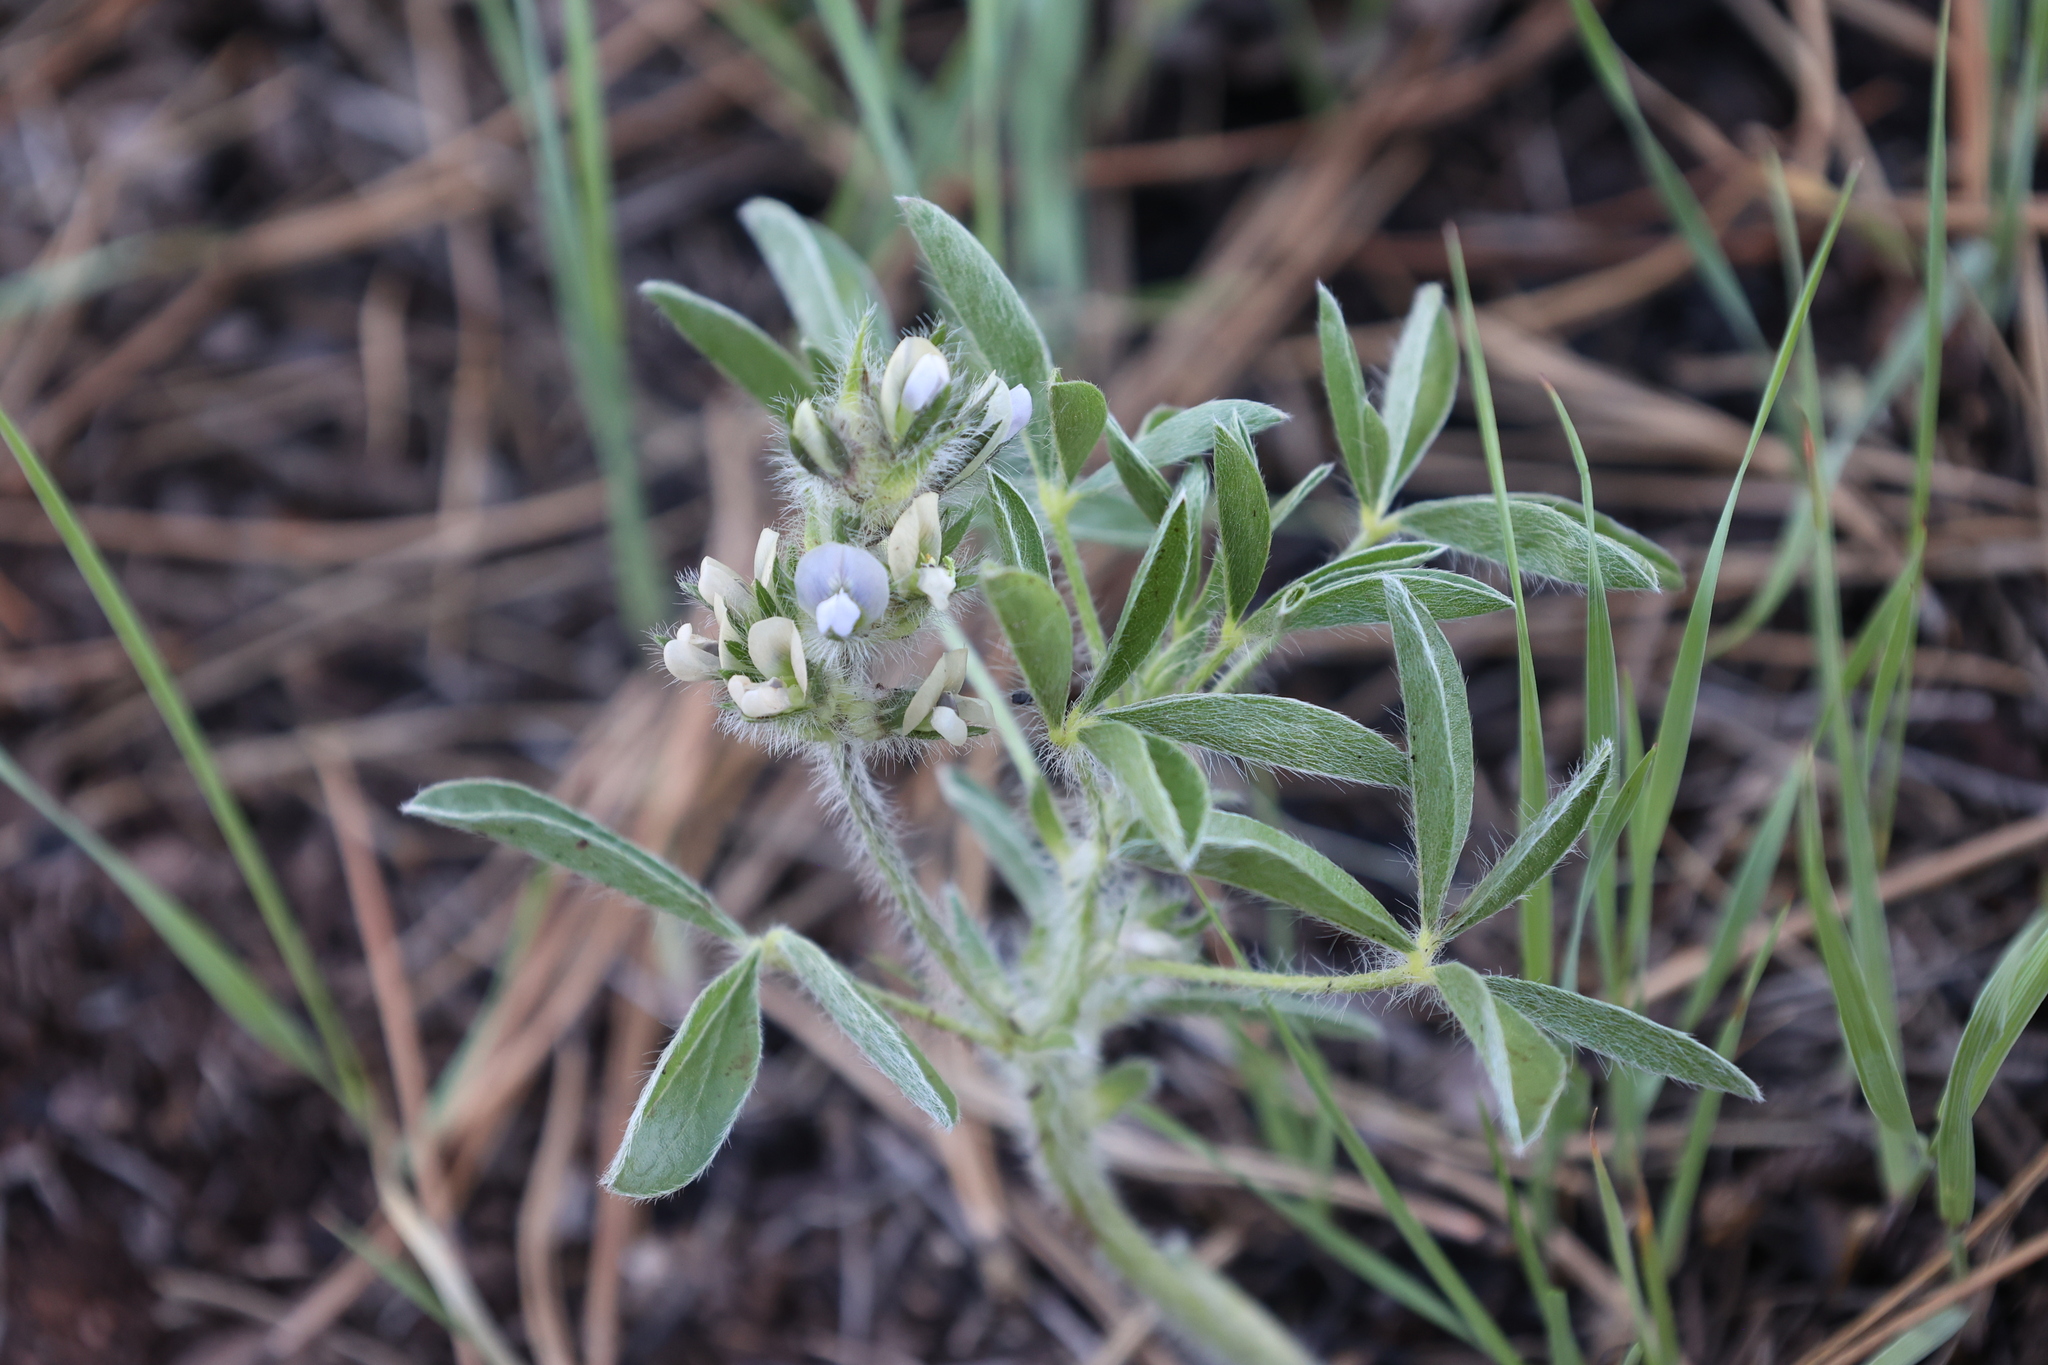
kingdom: Plantae
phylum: Tracheophyta
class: Magnoliopsida
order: Fabales
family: Fabaceae
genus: Pediomelum
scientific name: Pediomelum esculentum
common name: Indian-turnip
